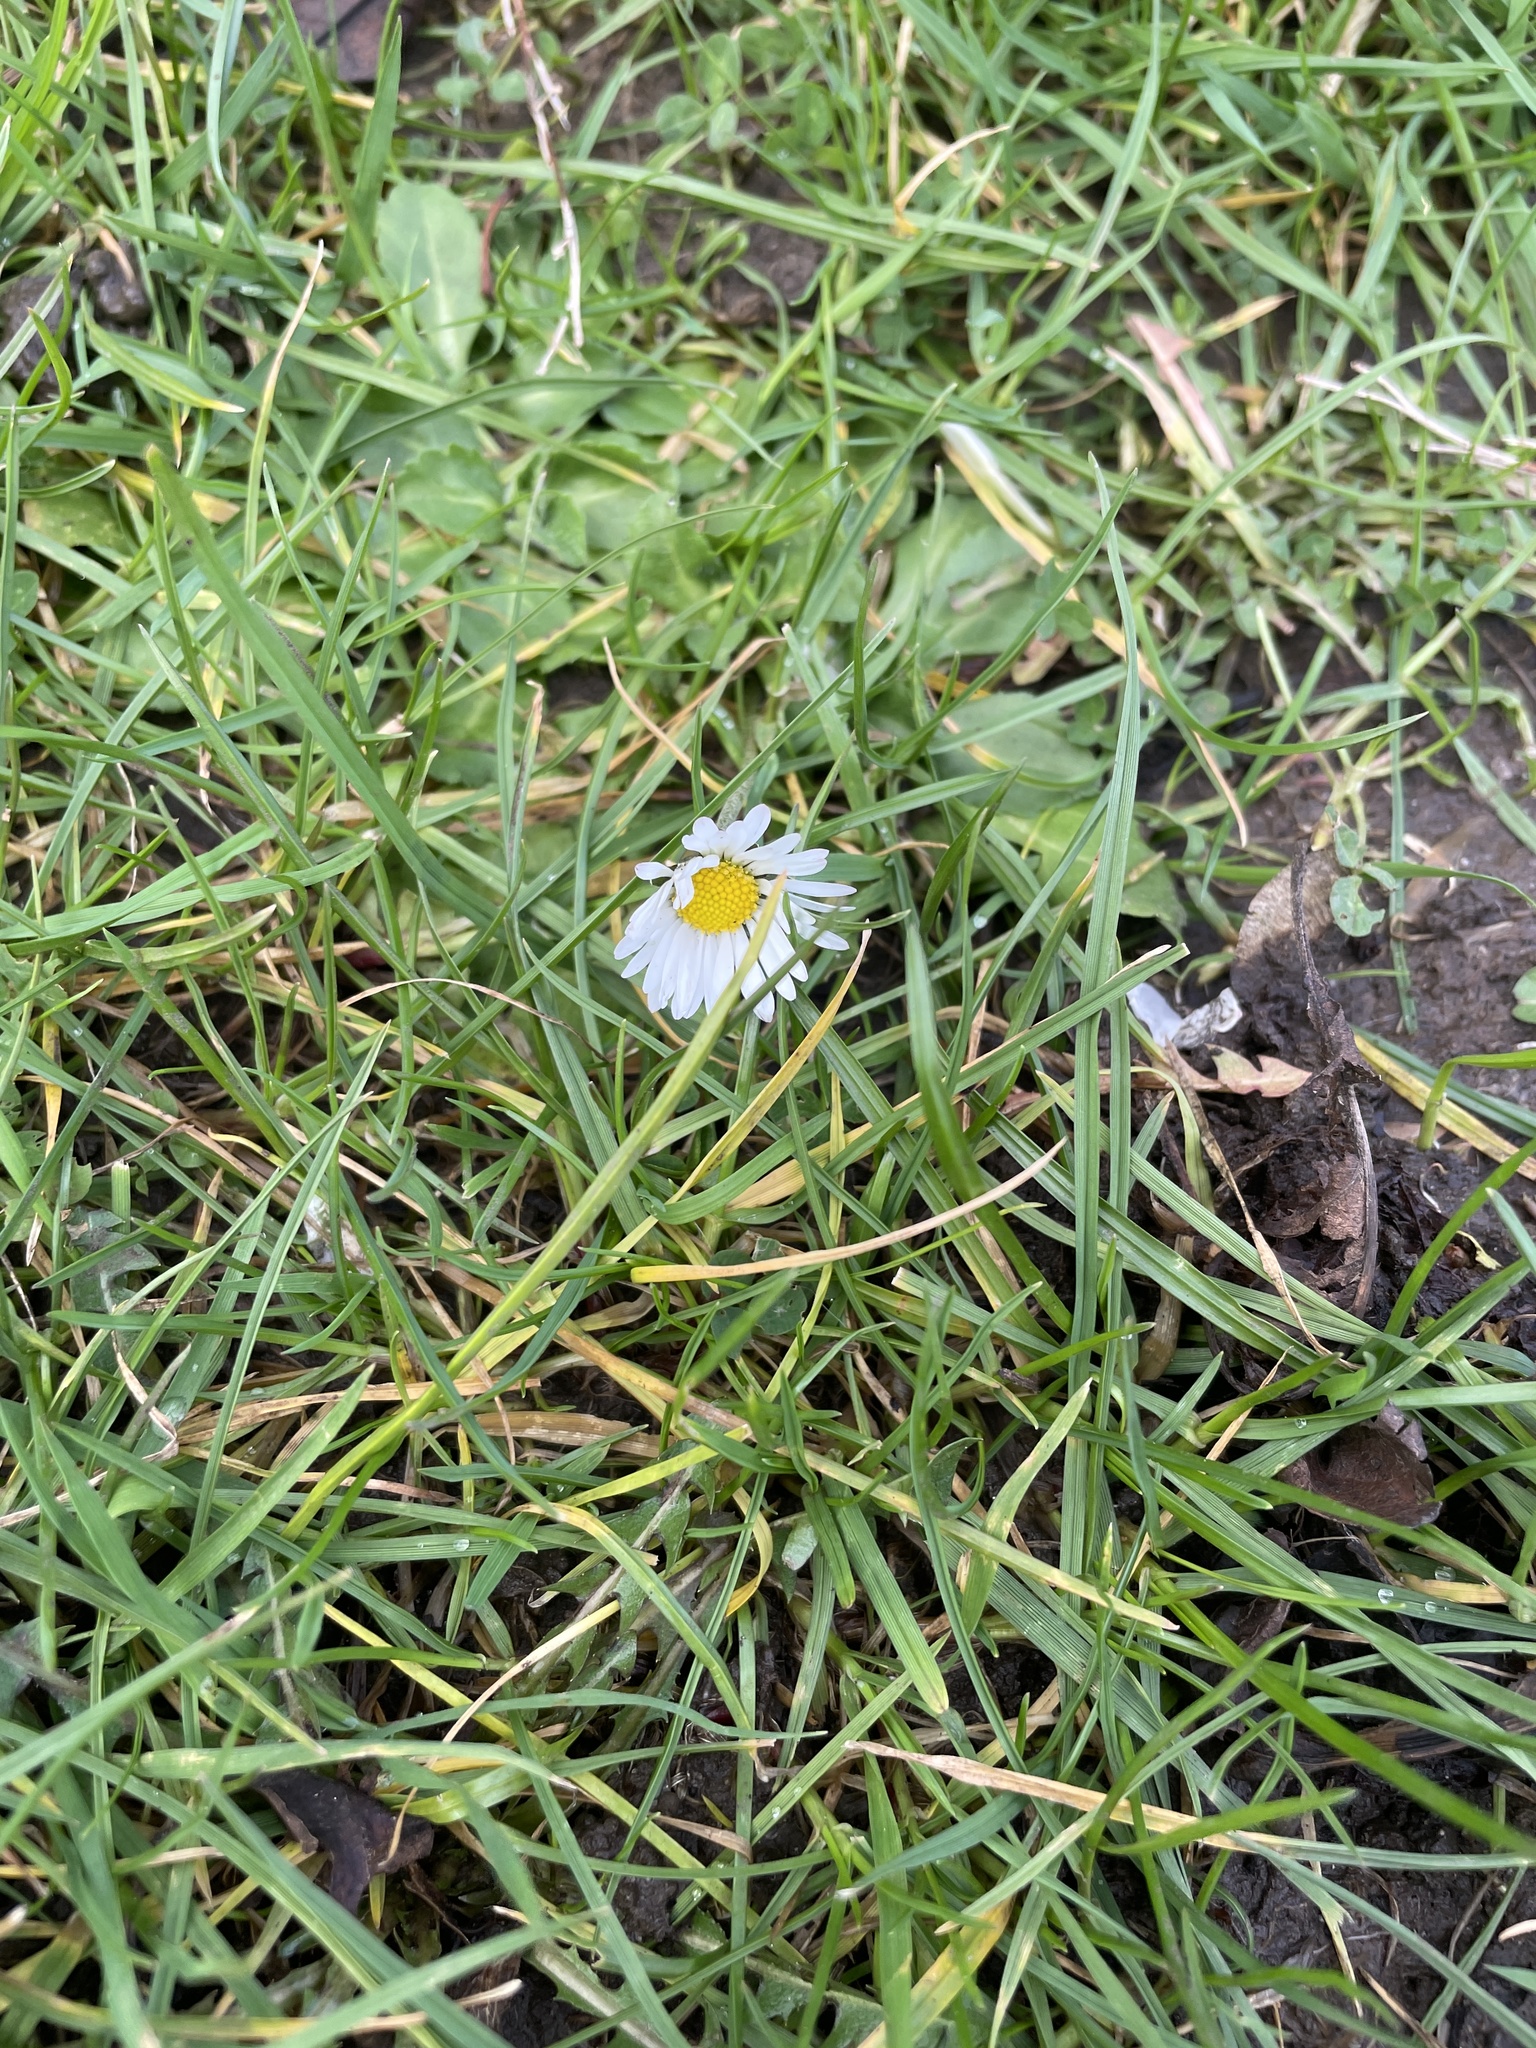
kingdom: Plantae
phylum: Tracheophyta
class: Magnoliopsida
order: Asterales
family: Asteraceae
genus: Bellis
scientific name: Bellis perennis
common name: Lawndaisy
